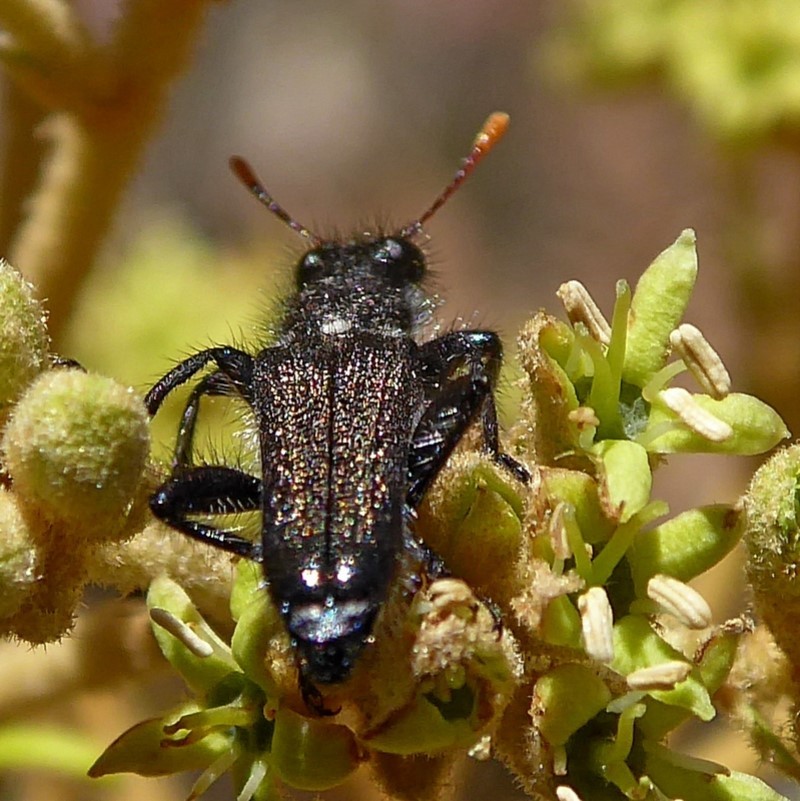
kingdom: Animalia
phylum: Arthropoda
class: Insecta
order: Coleoptera
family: Cleridae
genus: Eleale
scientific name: Eleale
